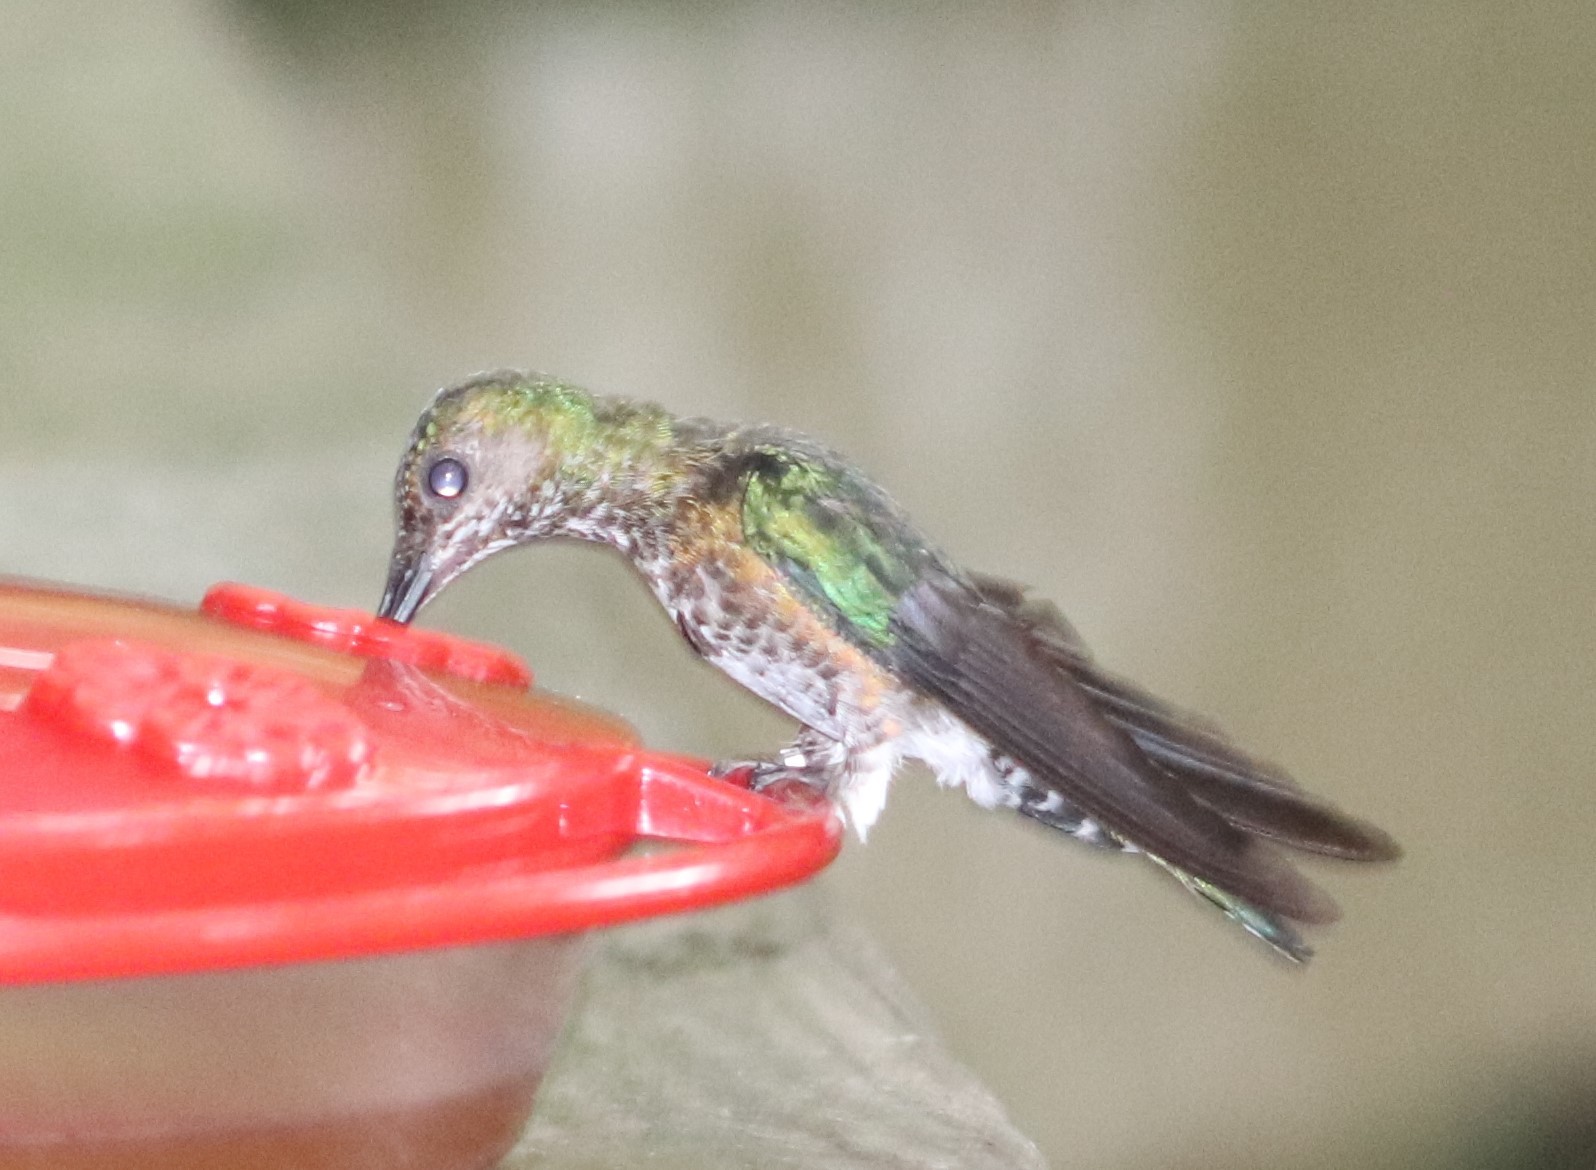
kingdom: Animalia
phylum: Chordata
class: Aves
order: Apodiformes
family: Trochilidae
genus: Florisuga
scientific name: Florisuga mellivora
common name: White-necked jacobin
